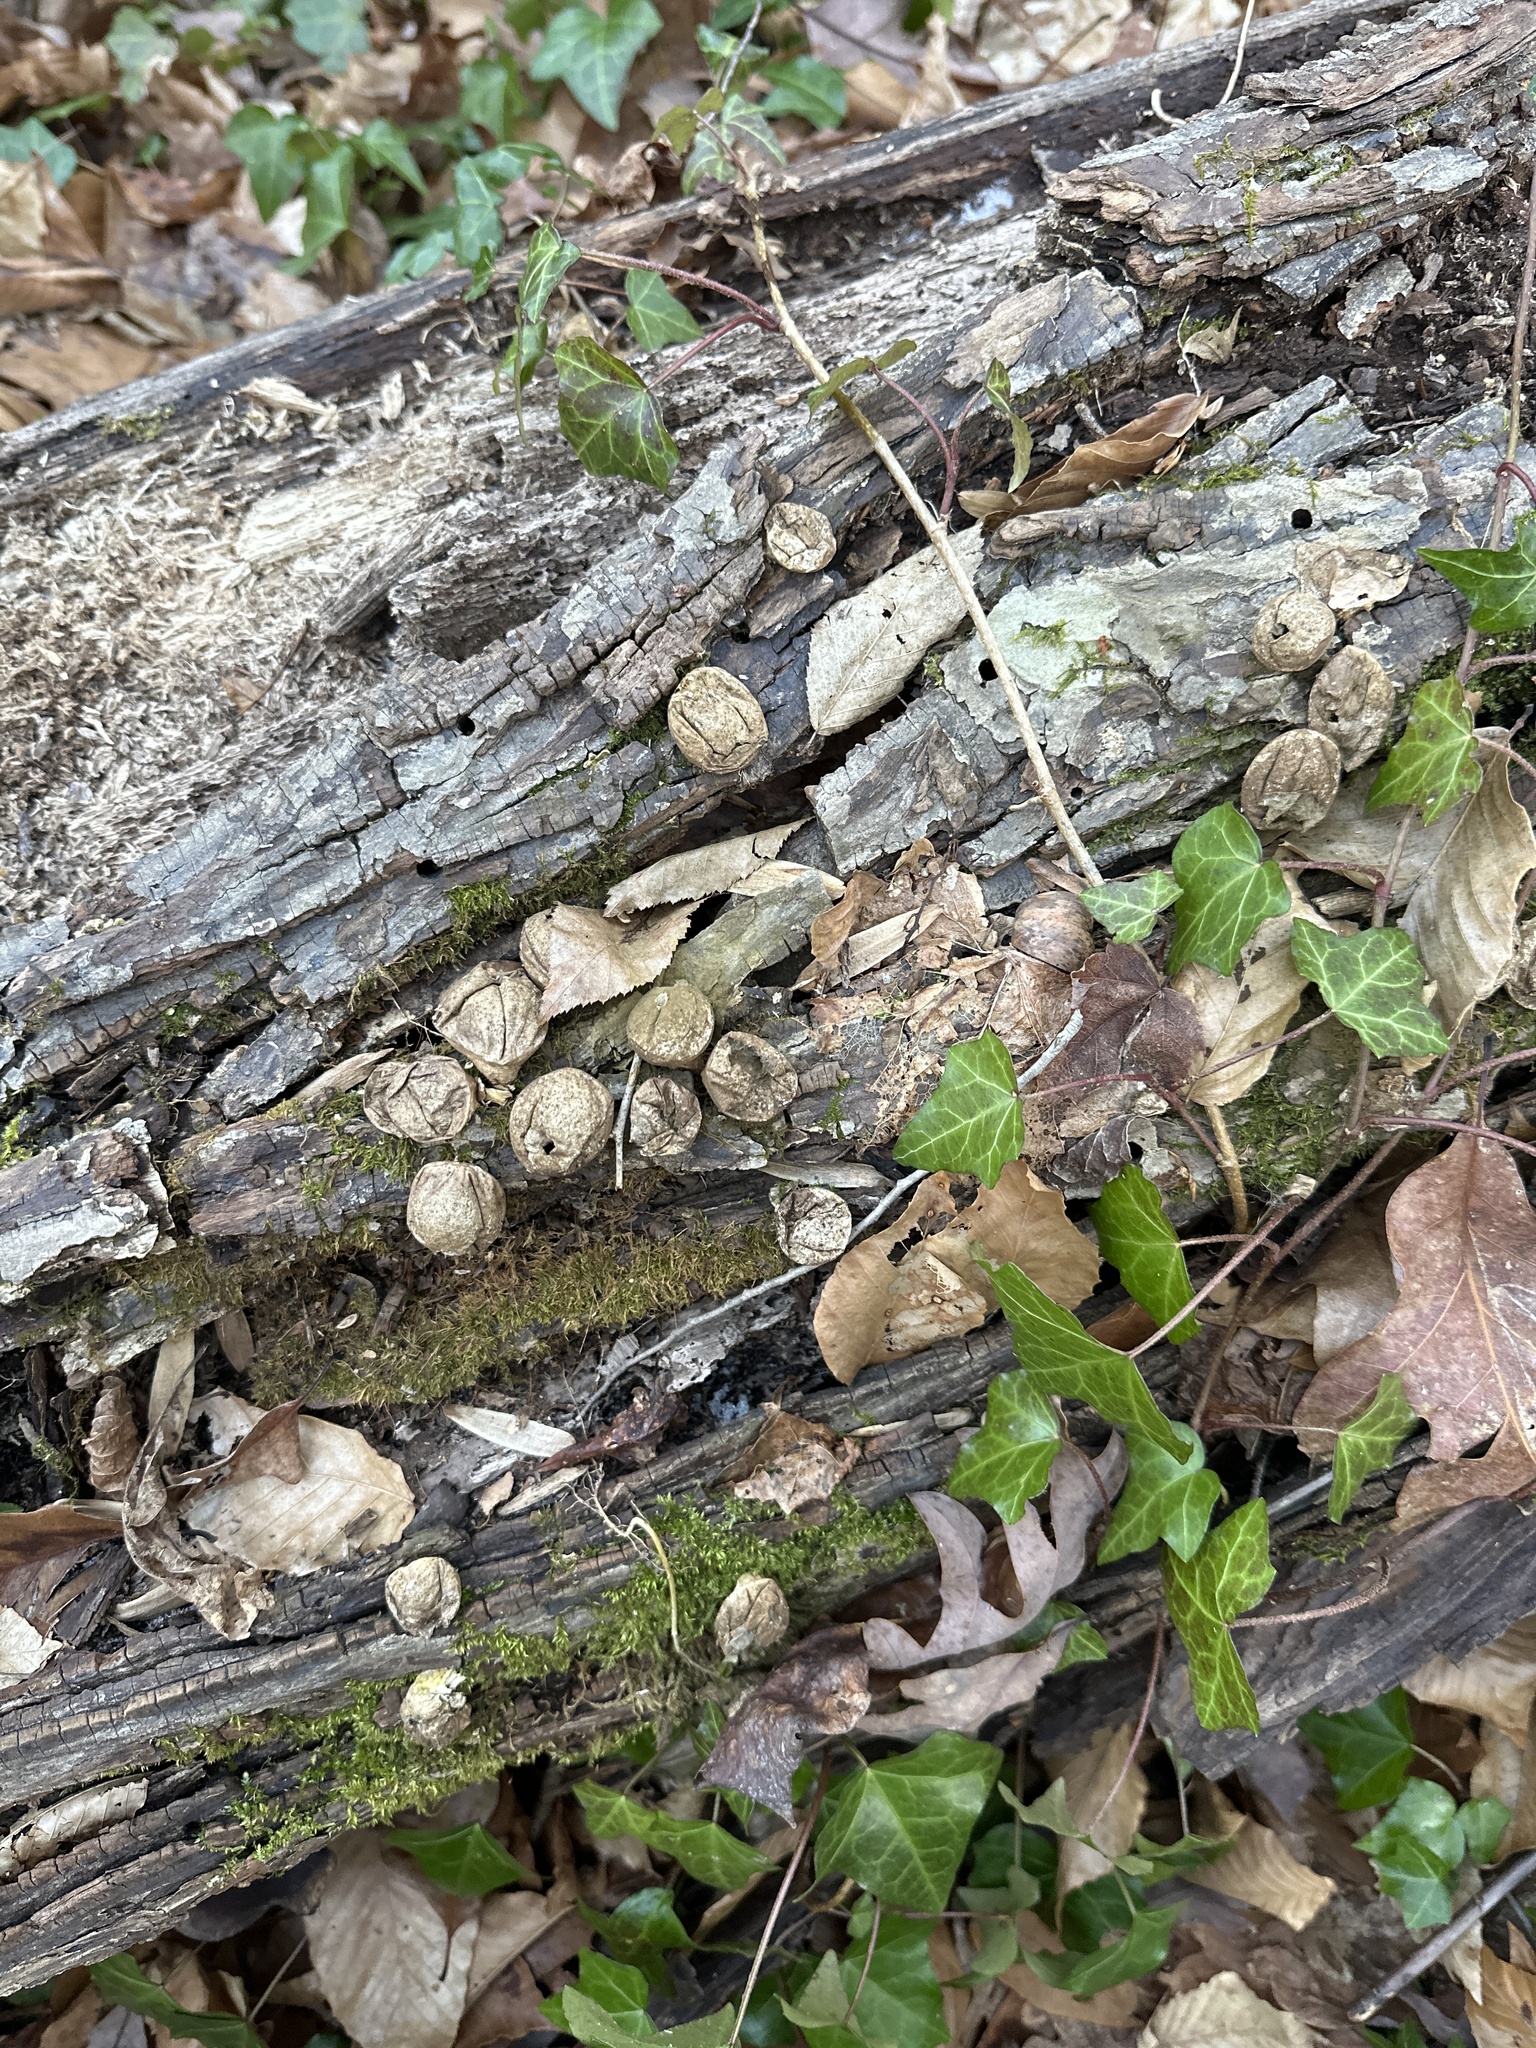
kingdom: Fungi
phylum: Basidiomycota
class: Agaricomycetes
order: Agaricales
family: Lycoperdaceae
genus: Apioperdon
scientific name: Apioperdon pyriforme
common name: Pear-shaped puffball
